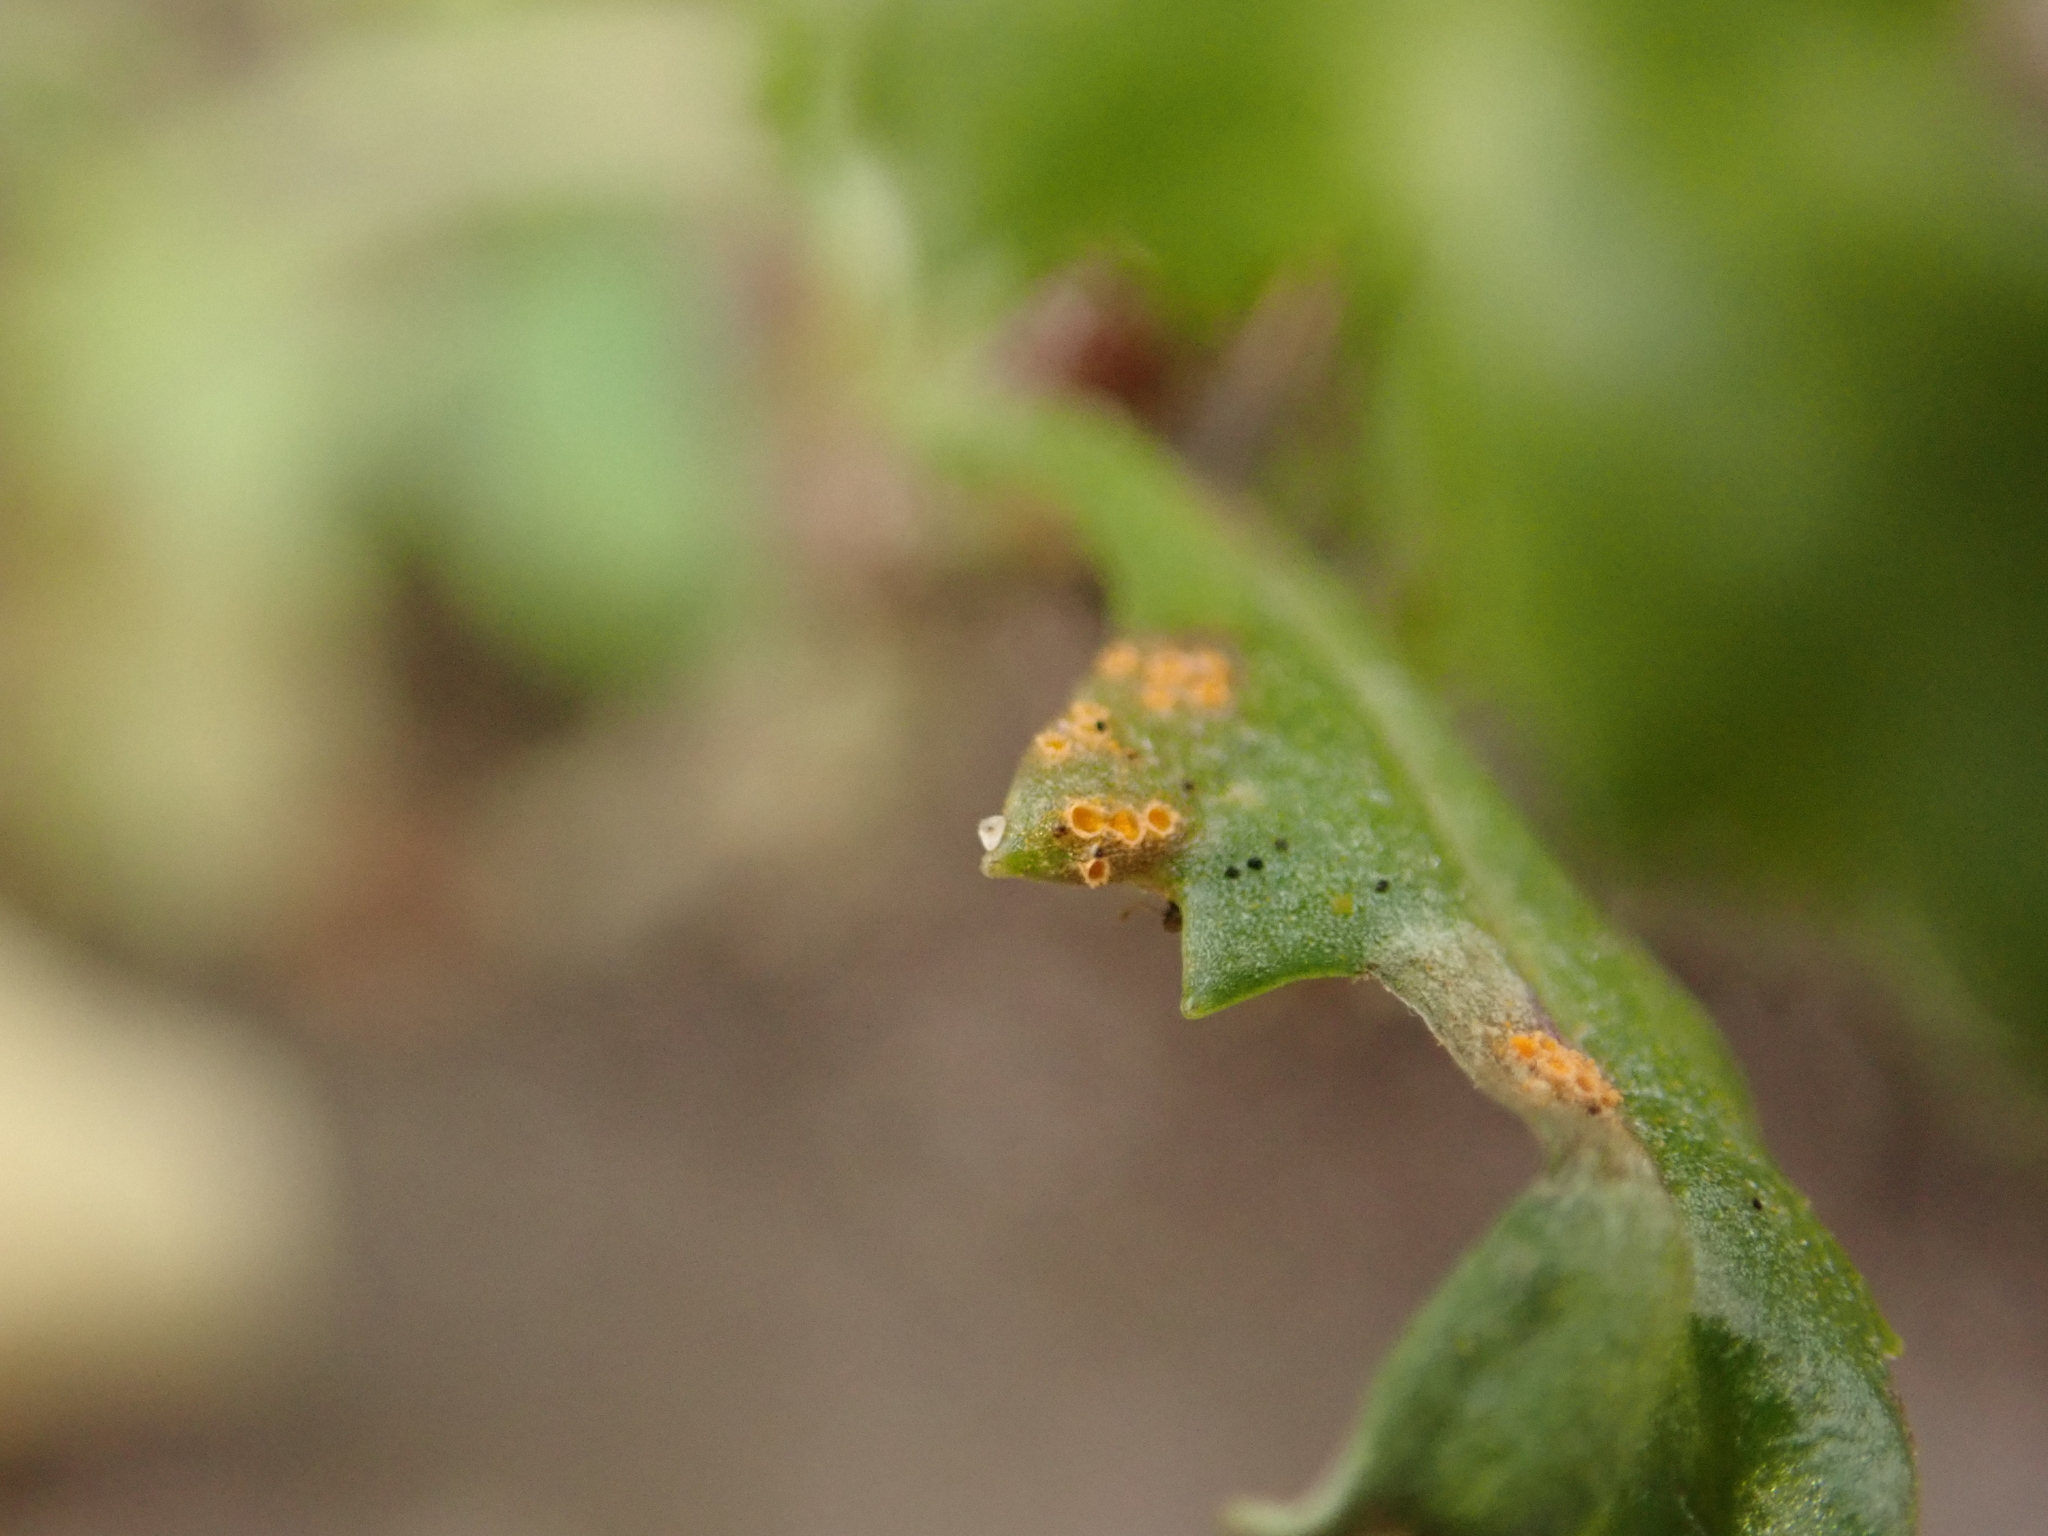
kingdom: Fungi
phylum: Basidiomycota
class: Pucciniomycetes
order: Pucciniales
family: Pucciniaceae
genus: Puccinia
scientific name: Puccinia lagenophorae
